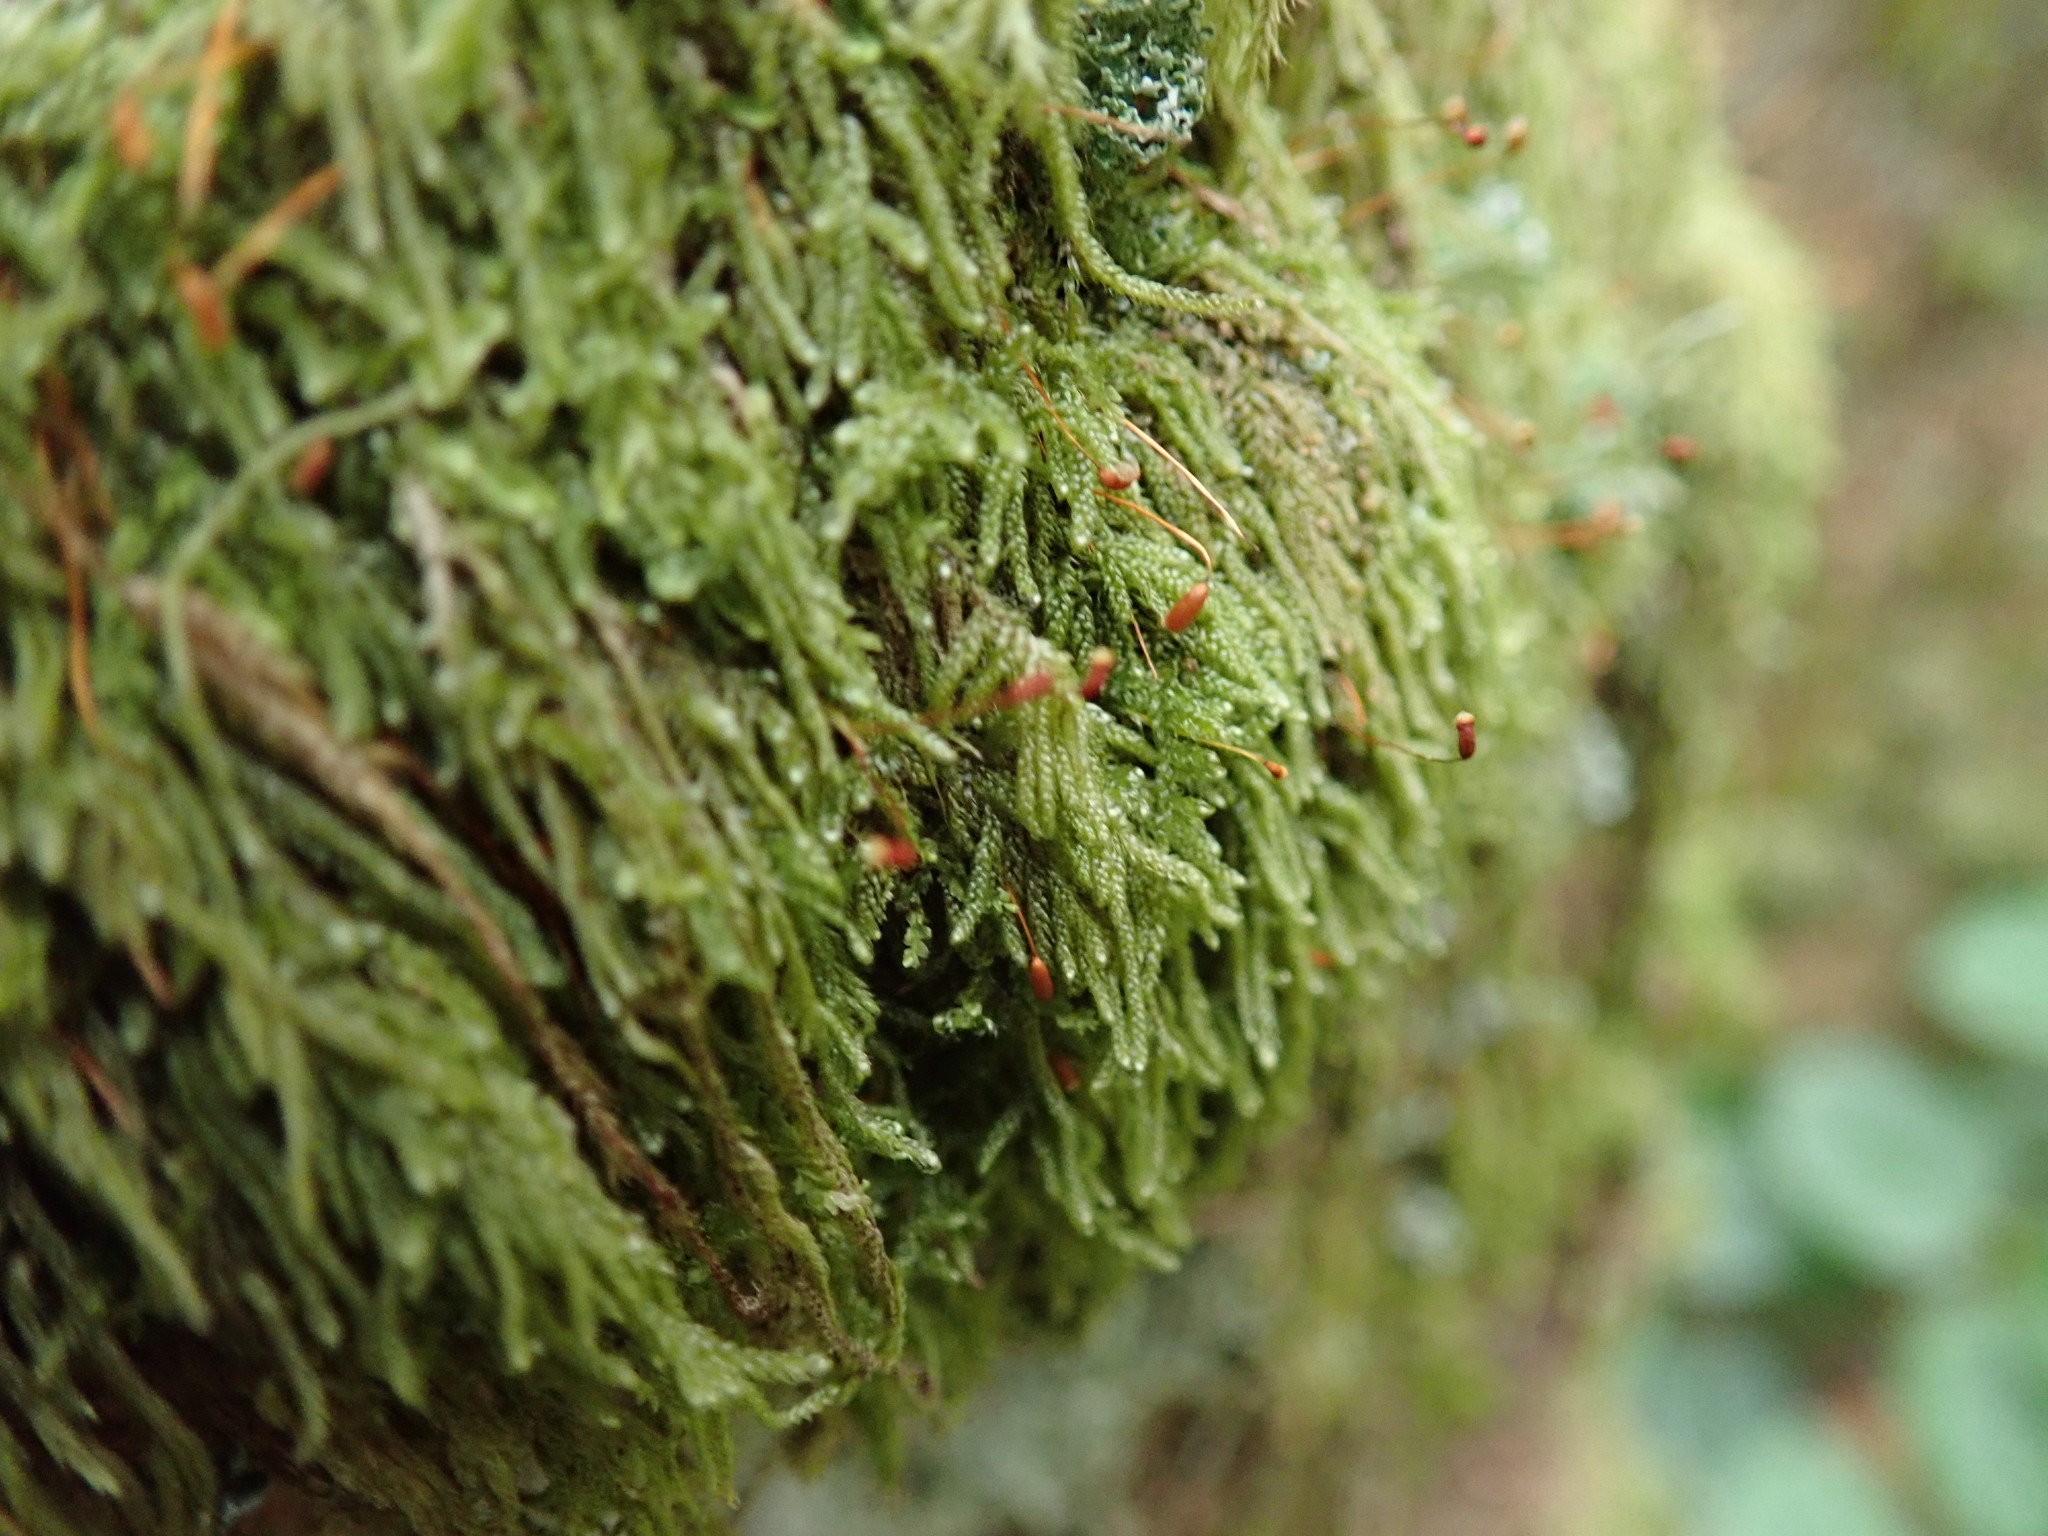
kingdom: Plantae
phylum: Bryophyta
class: Bryopsida
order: Hypnales
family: Pylaisiadelphaceae
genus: Trochophyllohypnum
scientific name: Trochophyllohypnum circinale
